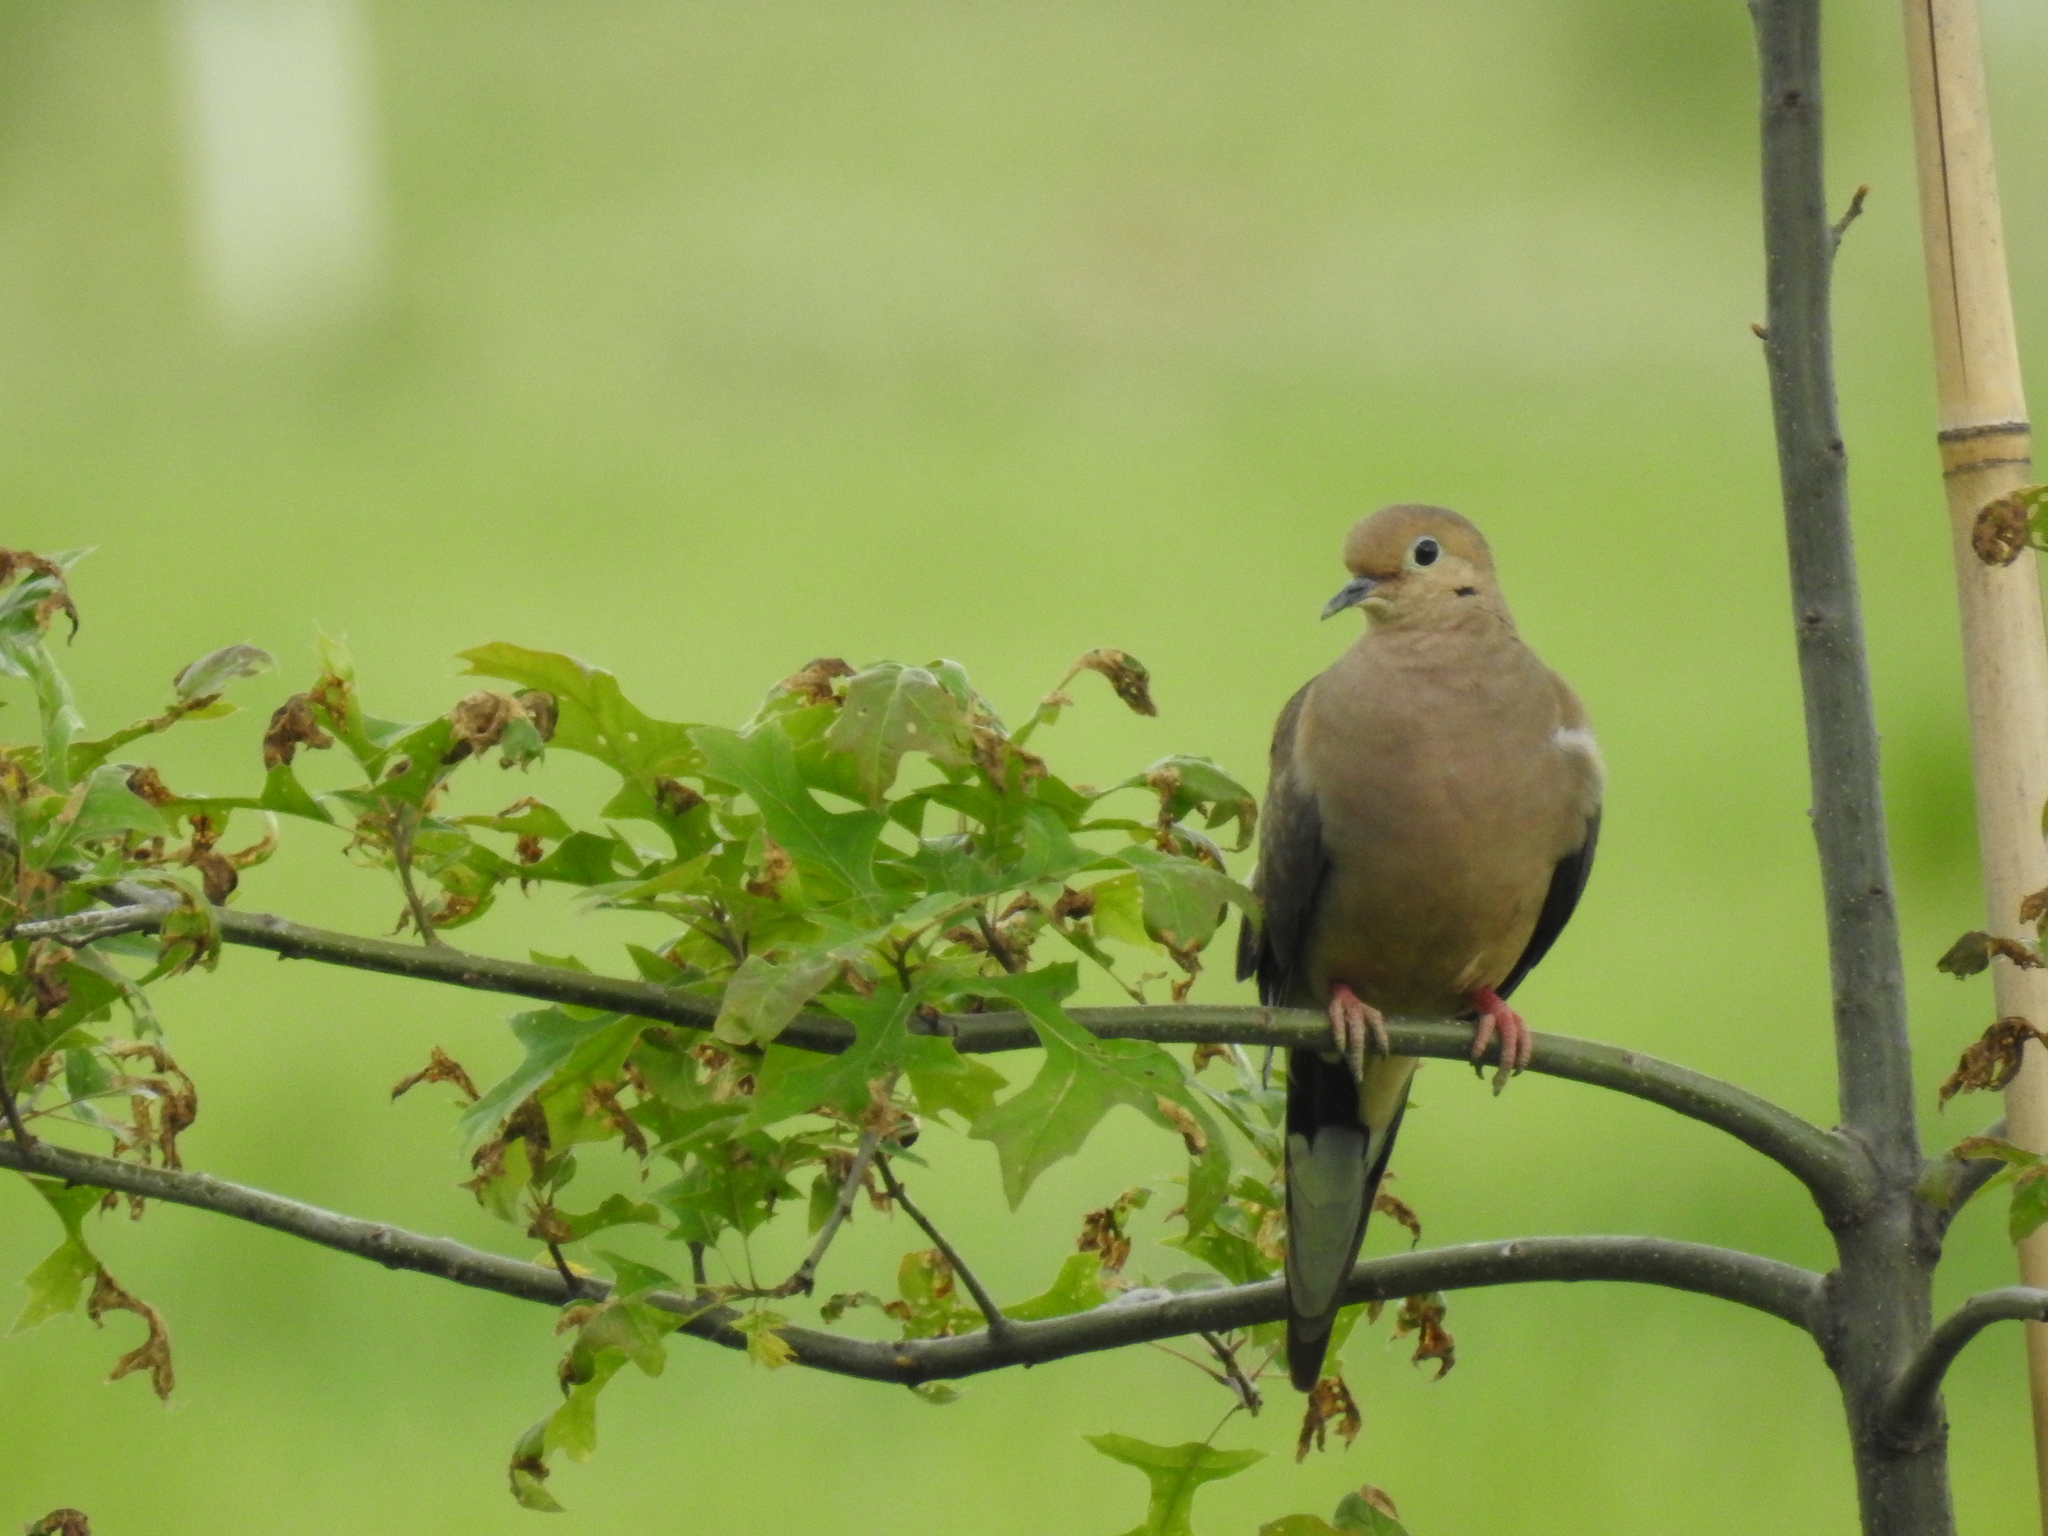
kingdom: Animalia
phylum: Chordata
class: Aves
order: Columbiformes
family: Columbidae
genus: Zenaida
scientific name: Zenaida macroura
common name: Mourning dove
